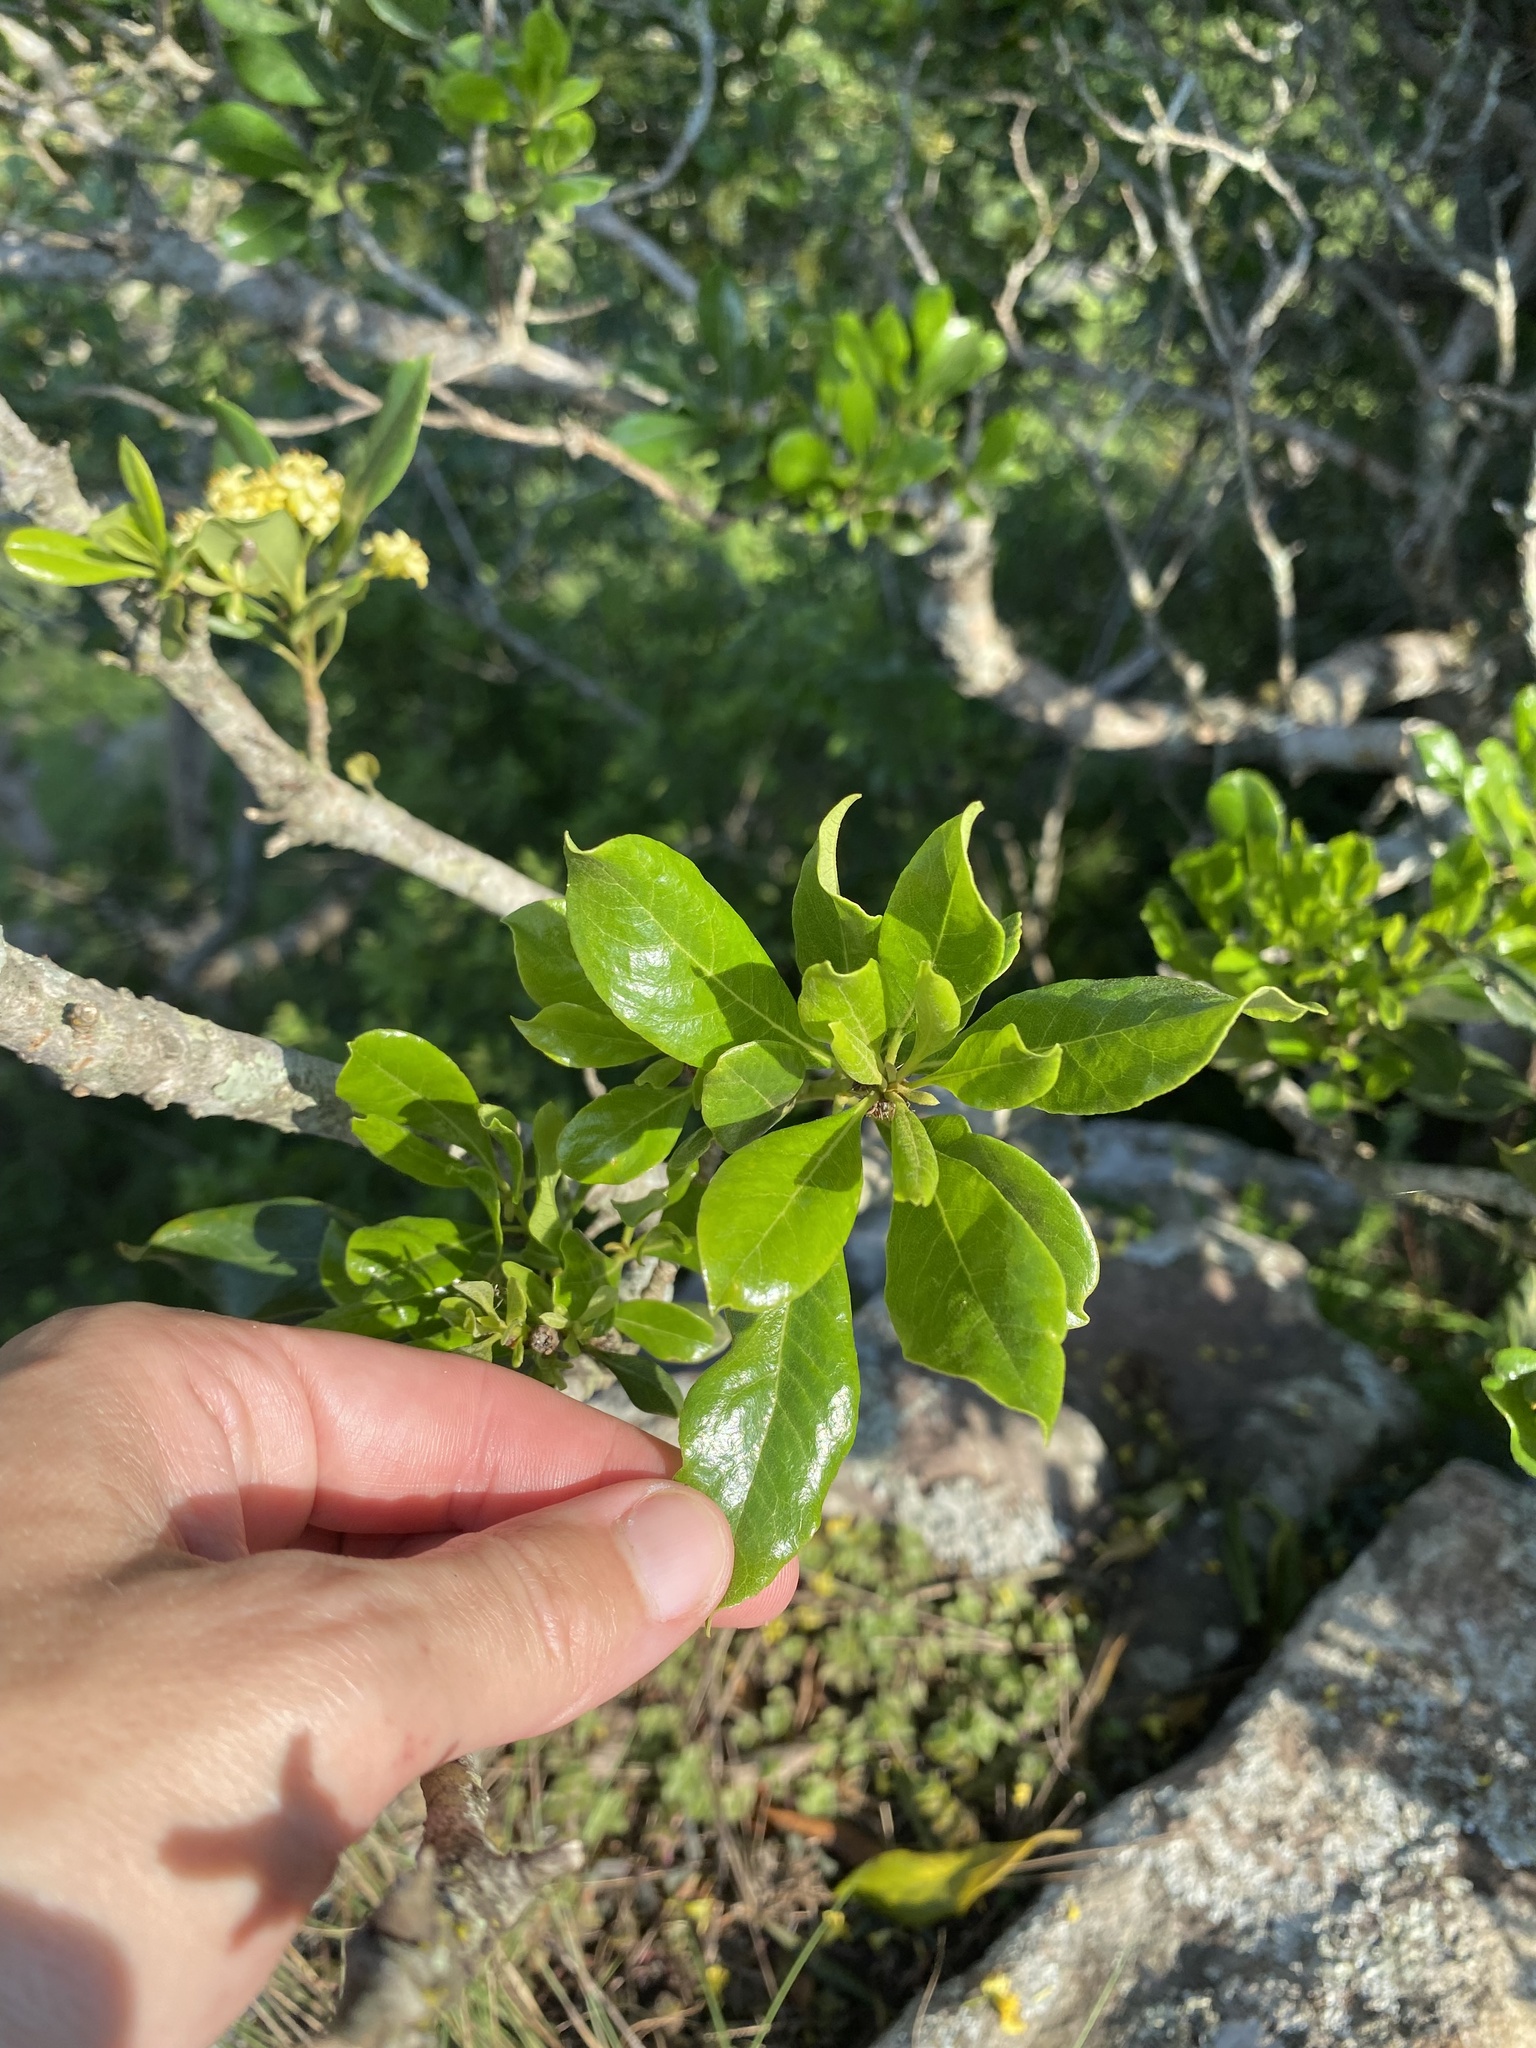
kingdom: Plantae
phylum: Tracheophyta
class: Magnoliopsida
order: Apiales
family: Pittosporaceae
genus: Pittosporum
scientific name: Pittosporum viridiflorum
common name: Cape cheesewood
